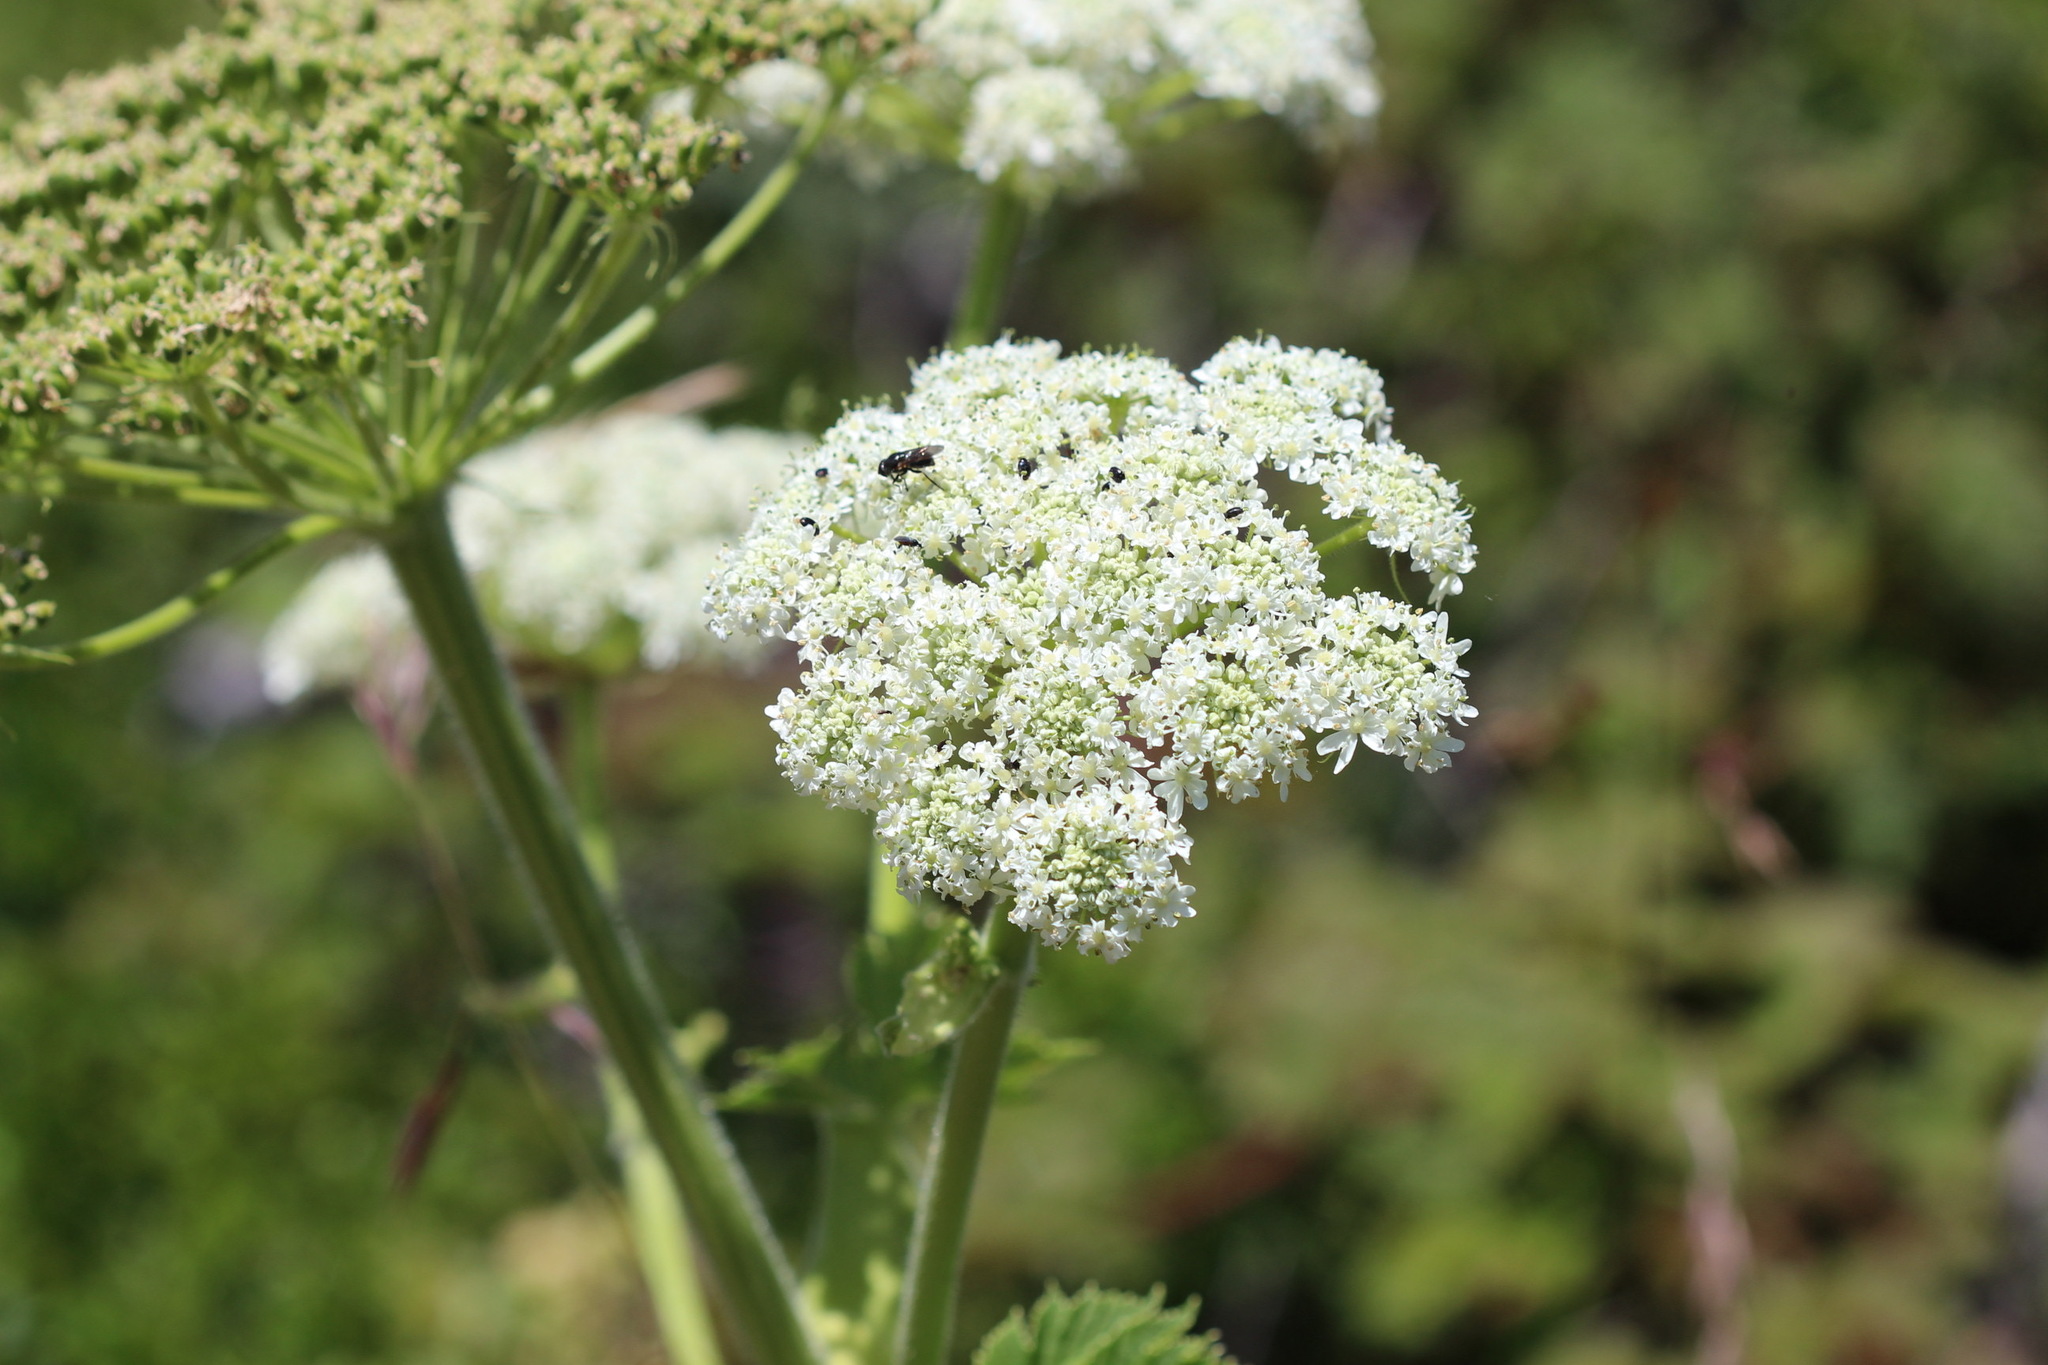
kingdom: Plantae
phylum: Tracheophyta
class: Magnoliopsida
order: Apiales
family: Apiaceae
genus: Heracleum
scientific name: Heracleum maximum
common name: American cow parsnip
